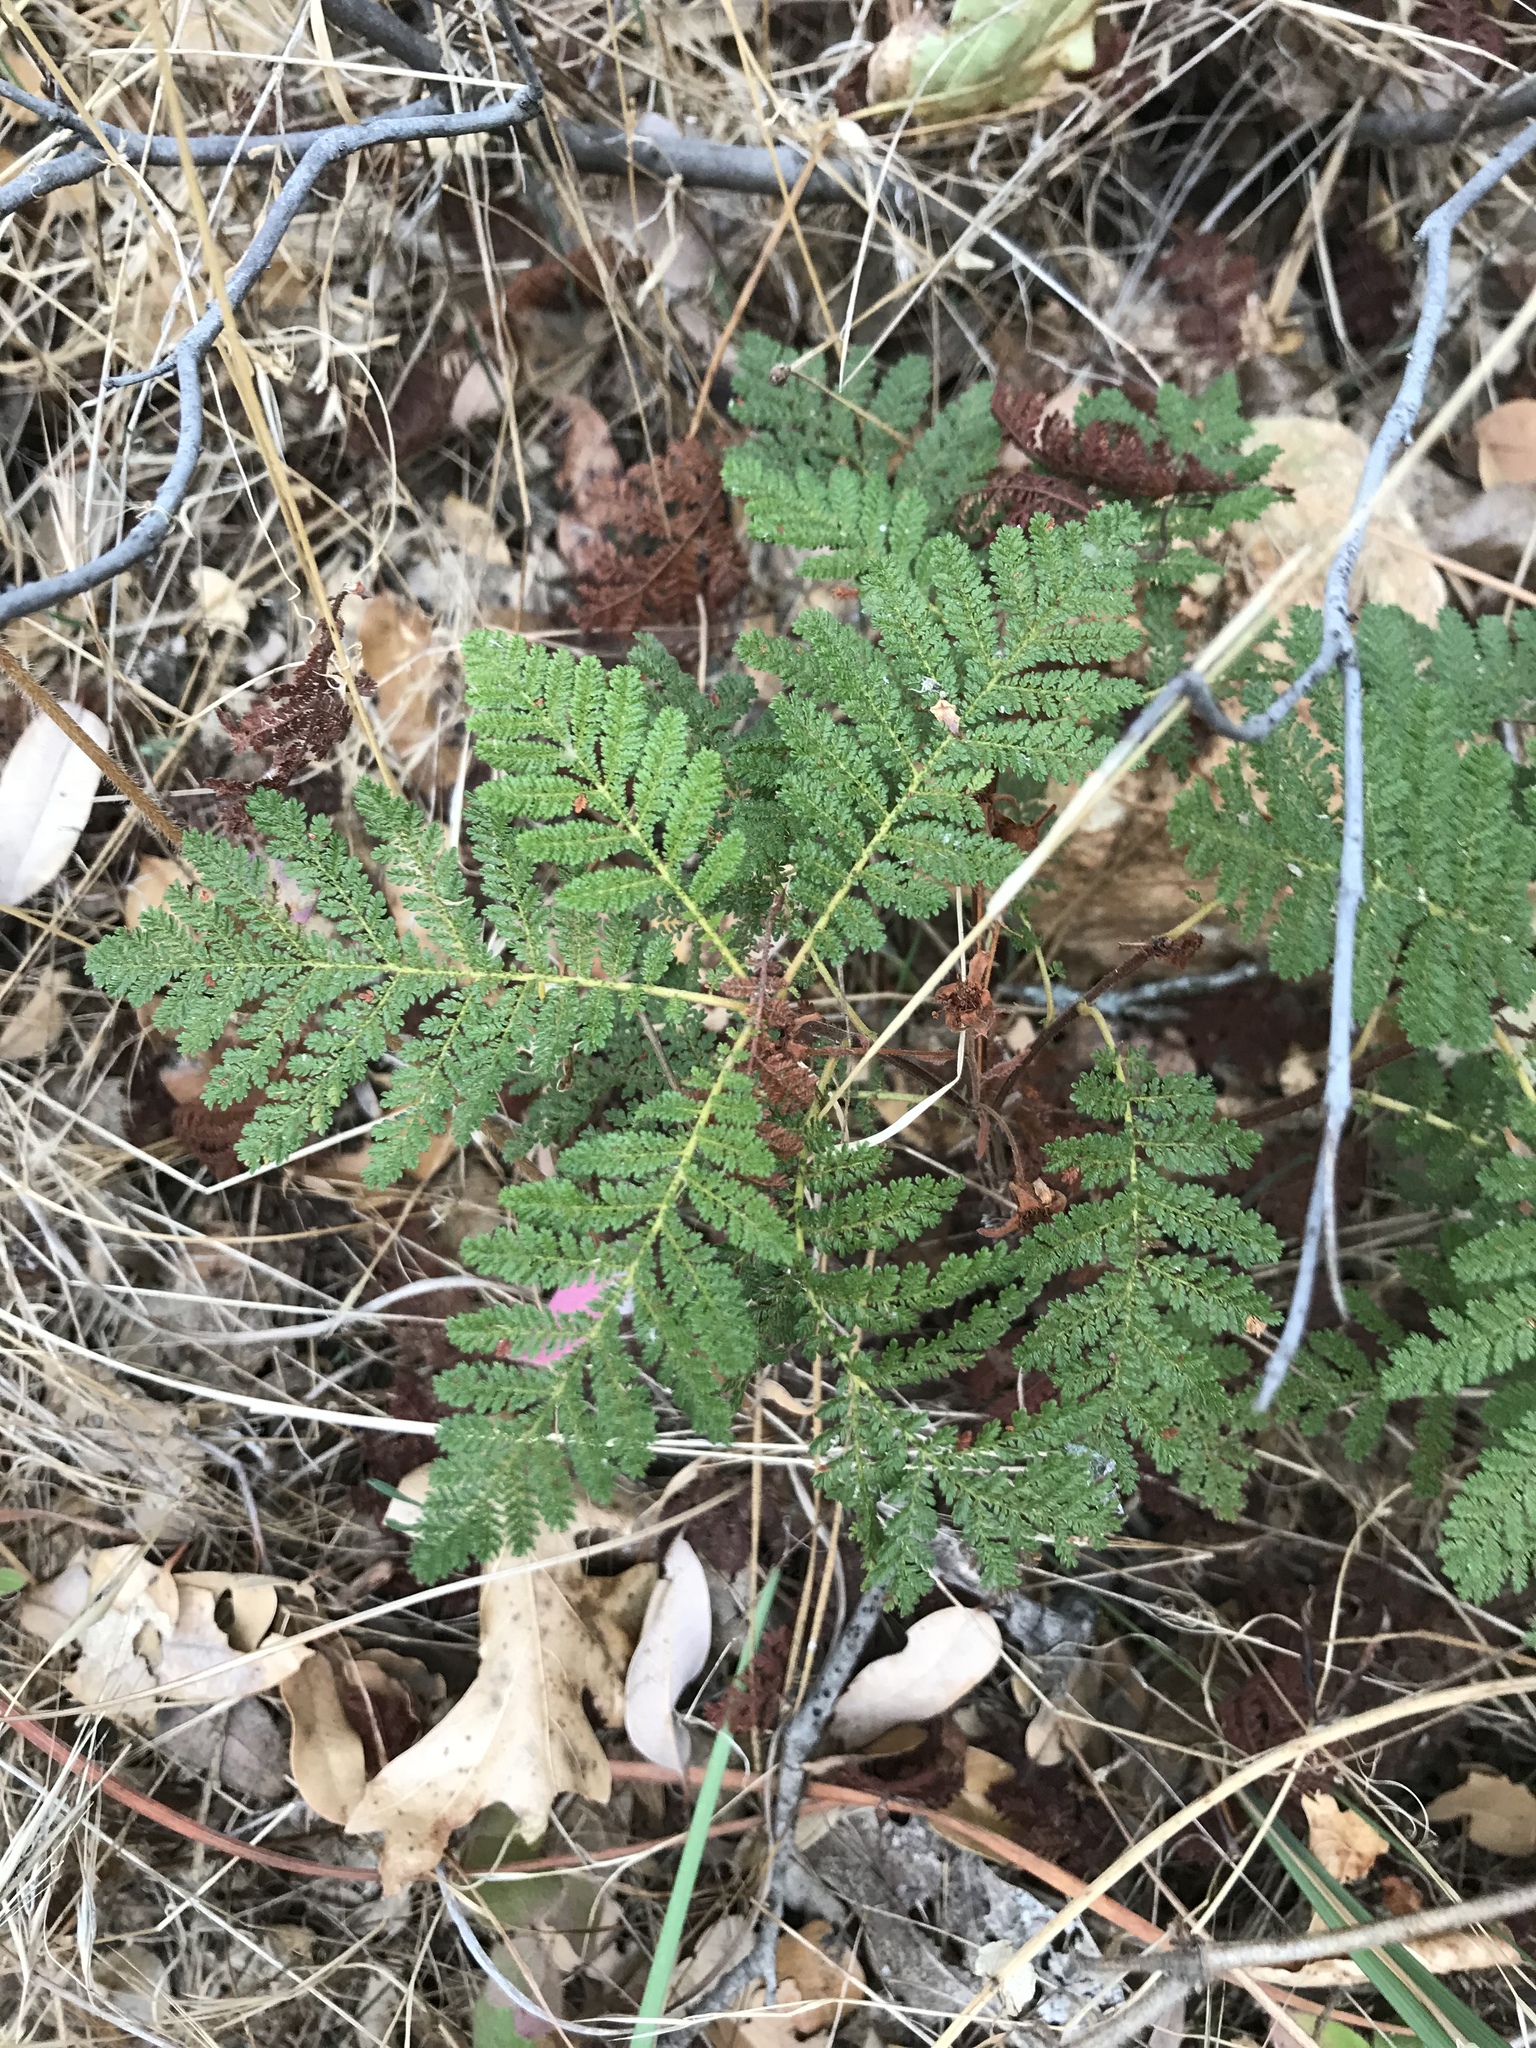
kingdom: Plantae
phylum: Tracheophyta
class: Magnoliopsida
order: Rosales
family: Rosaceae
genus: Chamaebatia
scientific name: Chamaebatia foliolosa
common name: Mountain misery
